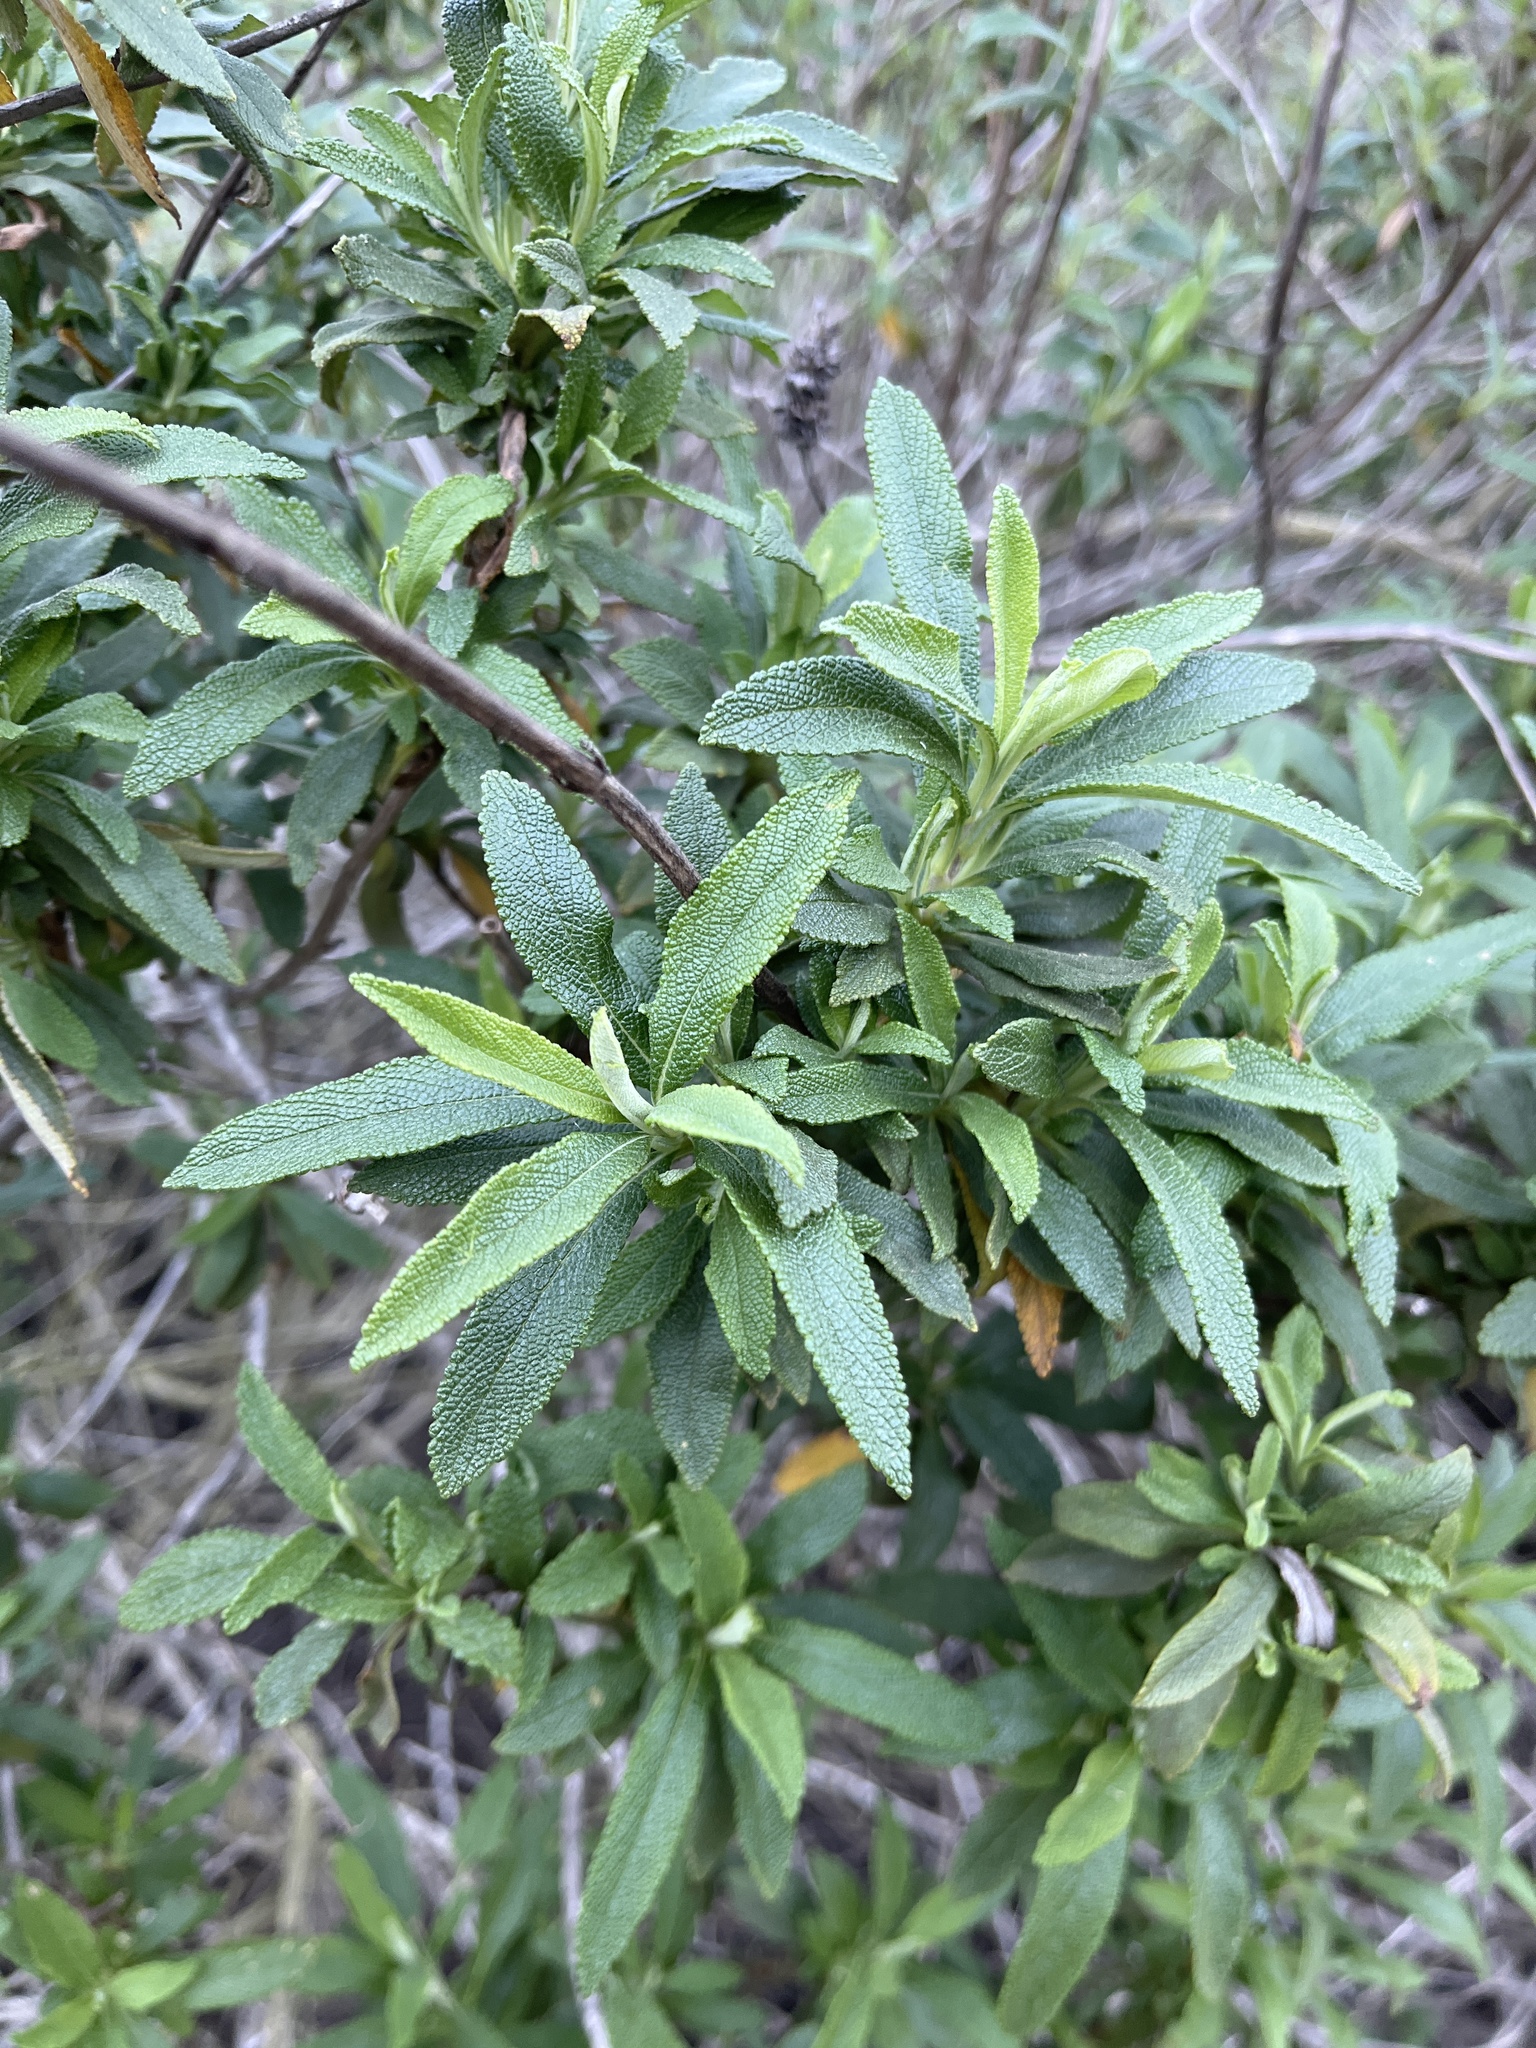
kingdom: Plantae
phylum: Tracheophyta
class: Magnoliopsida
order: Lamiales
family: Lamiaceae
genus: Salvia
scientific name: Salvia mellifera
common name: Black sage
